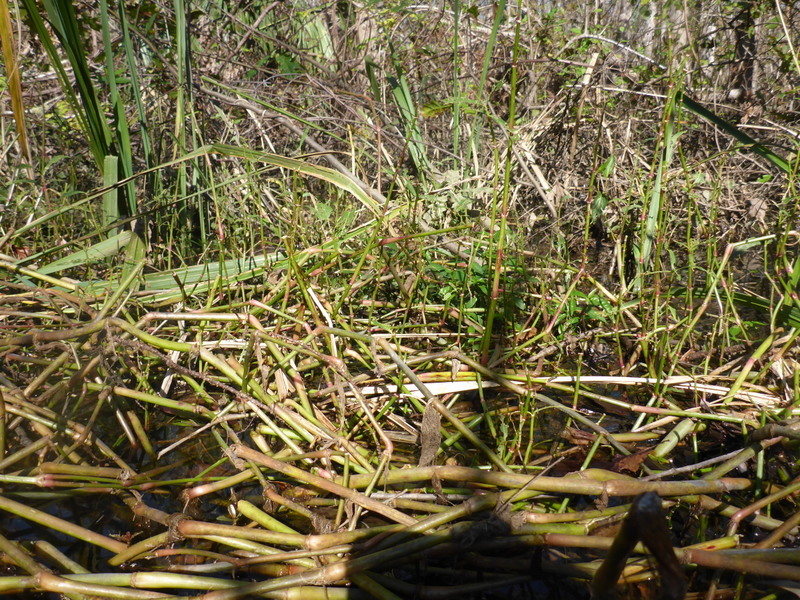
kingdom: Plantae
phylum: Tracheophyta
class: Magnoliopsida
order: Caryophyllales
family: Amaranthaceae
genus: Alternanthera
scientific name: Alternanthera philoxeroides
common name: Alligatorweed
